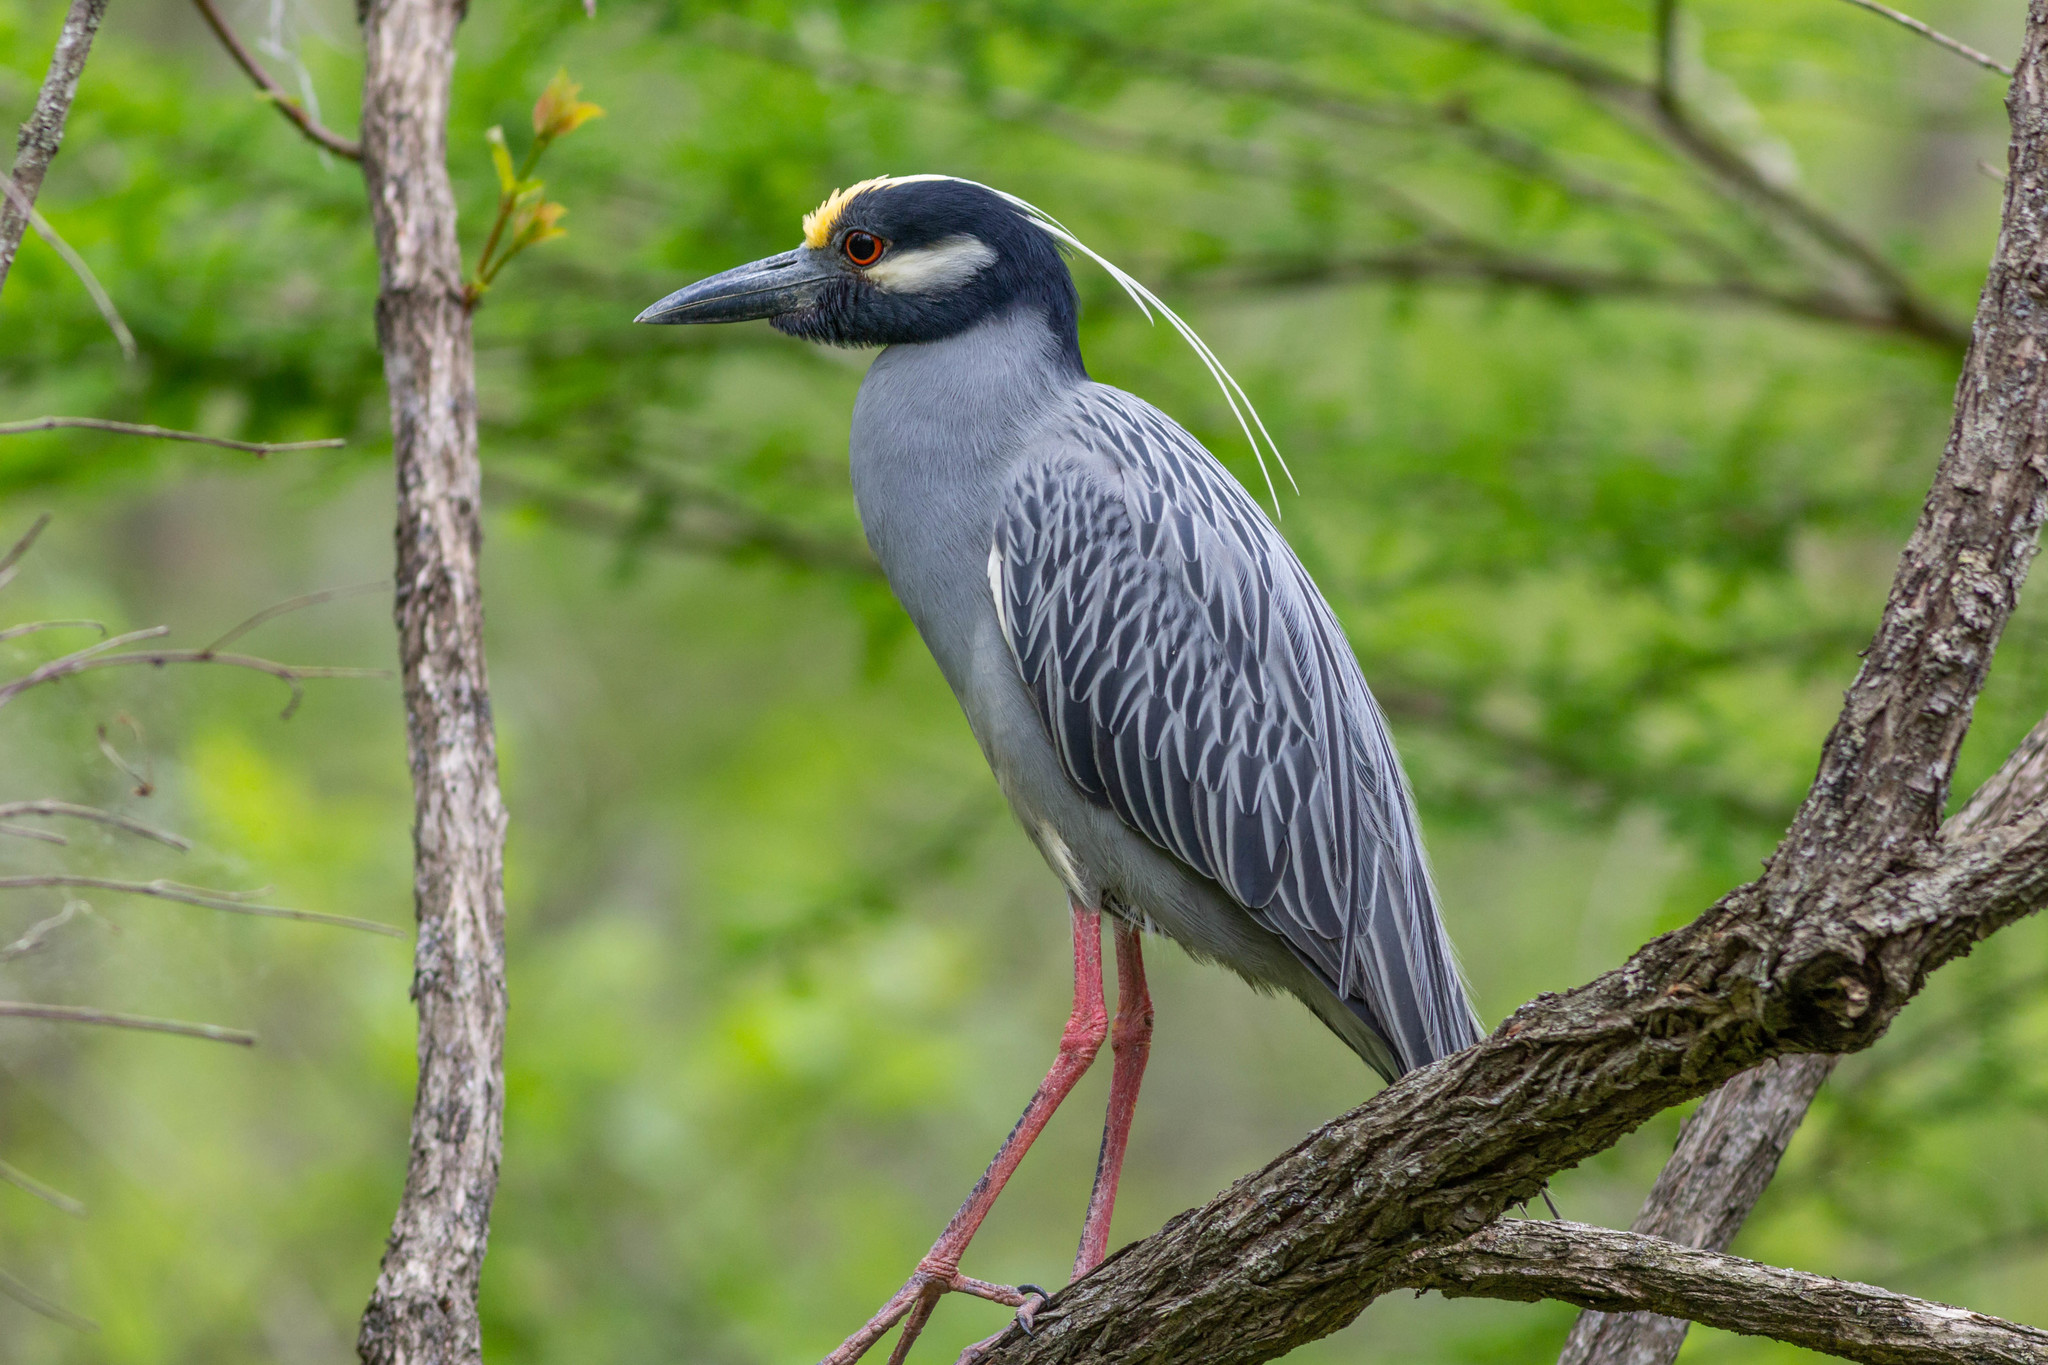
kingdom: Animalia
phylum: Chordata
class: Aves
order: Pelecaniformes
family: Ardeidae
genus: Nyctanassa
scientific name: Nyctanassa violacea
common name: Yellow-crowned night heron
